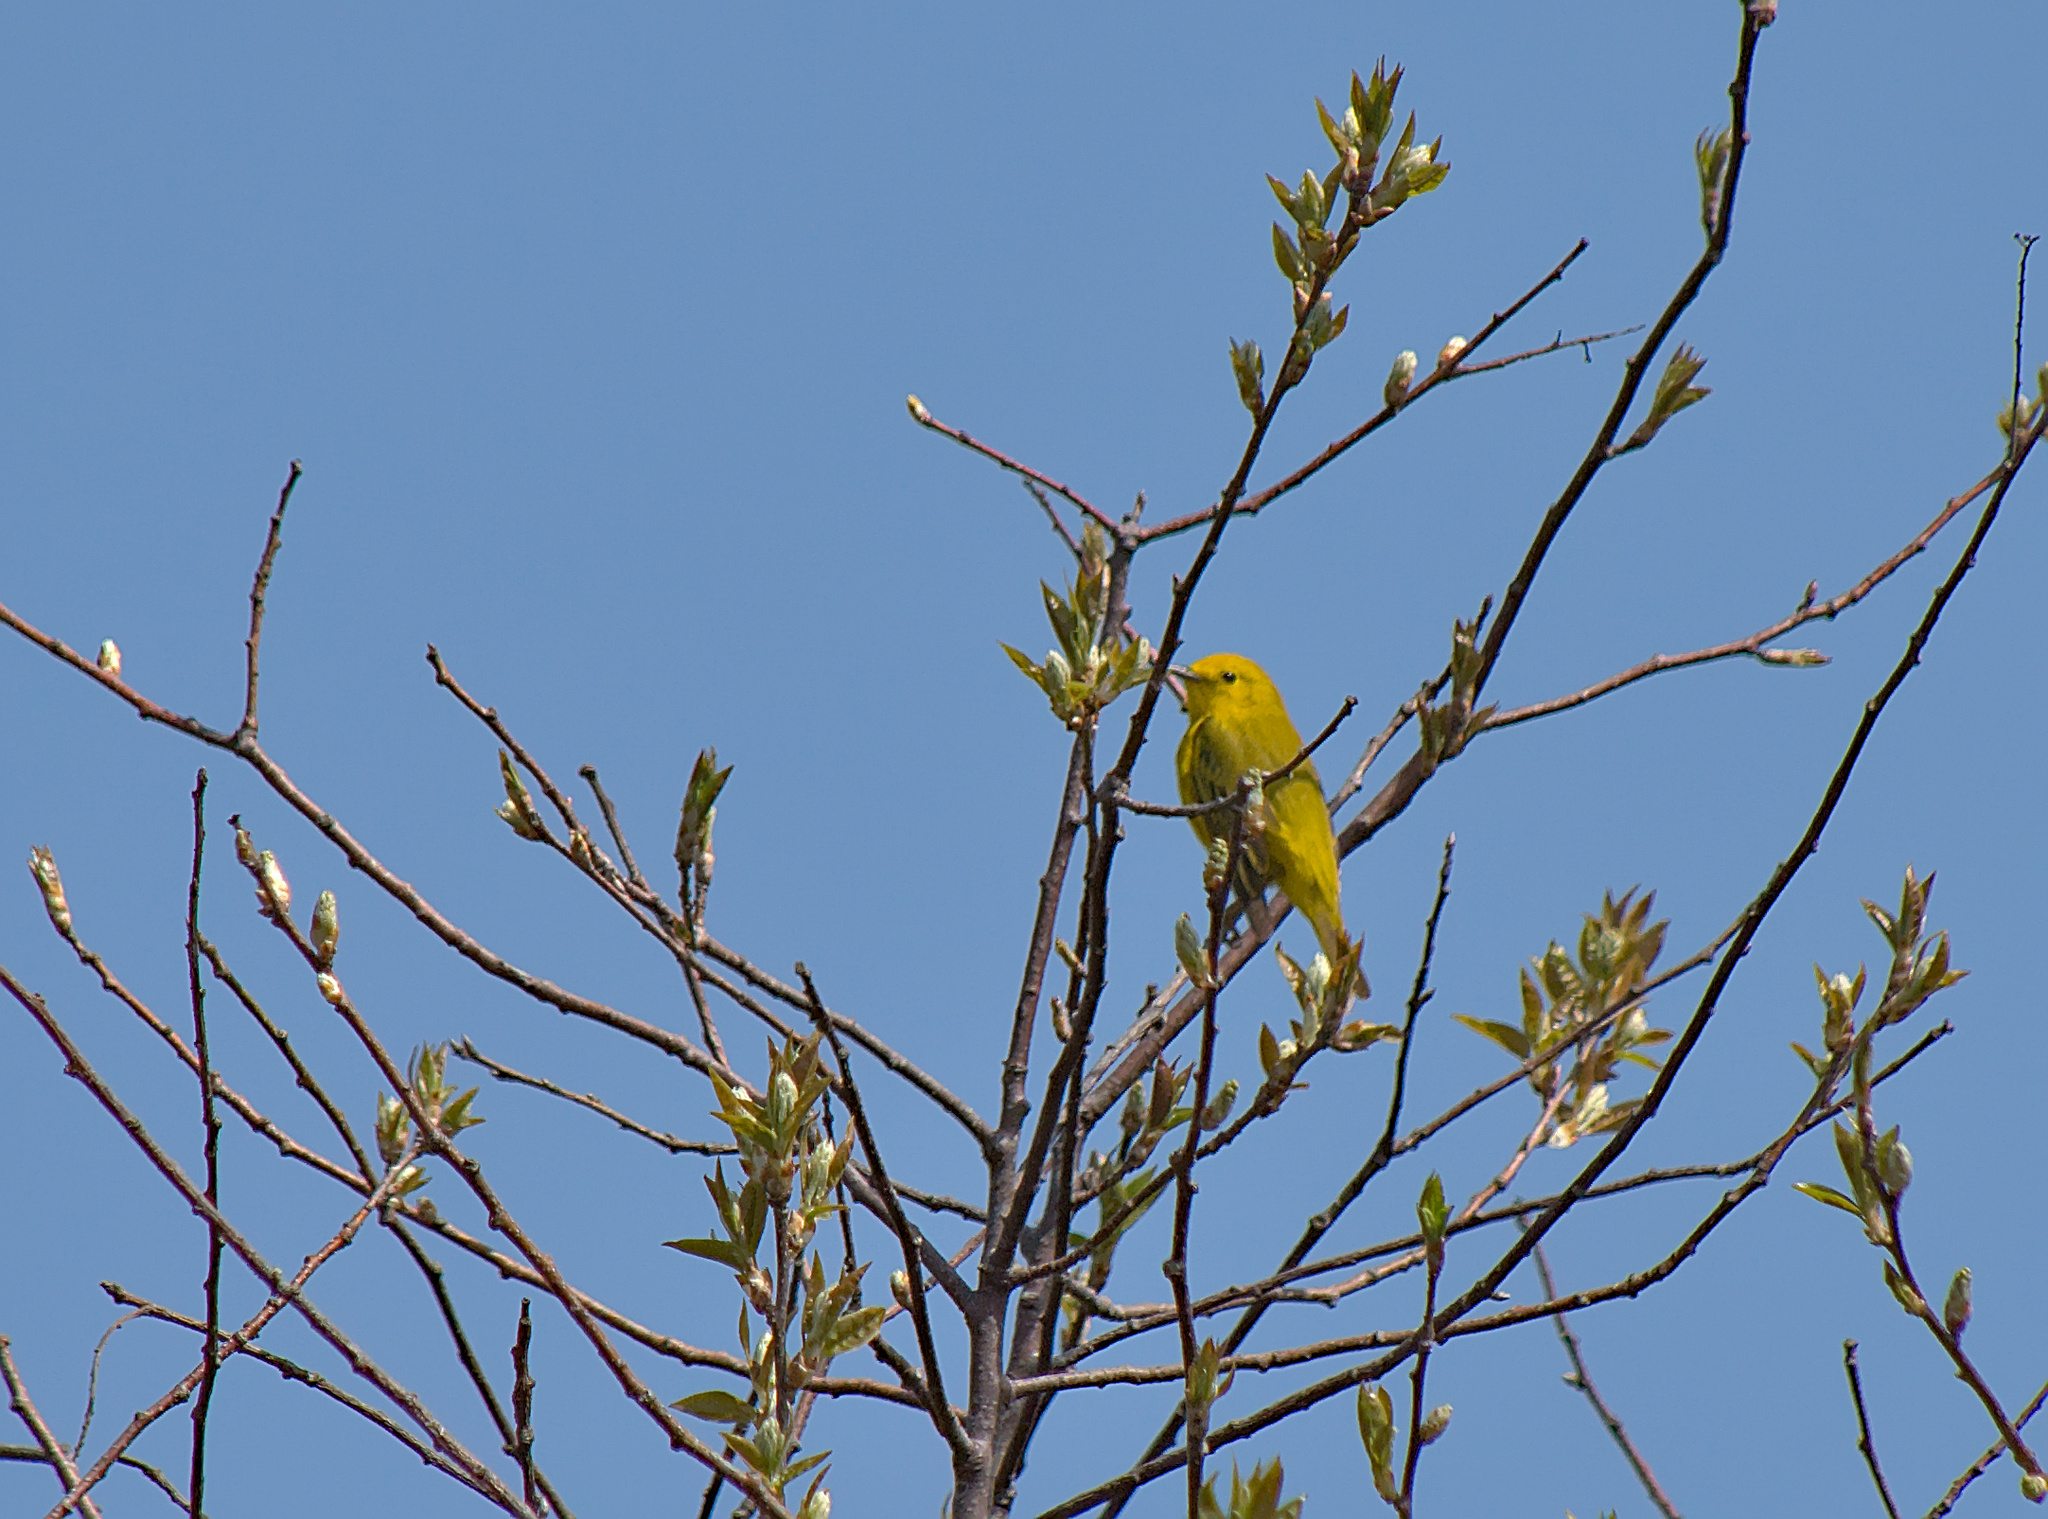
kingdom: Animalia
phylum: Chordata
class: Aves
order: Passeriformes
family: Parulidae
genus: Setophaga
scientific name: Setophaga petechia
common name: Yellow warbler
